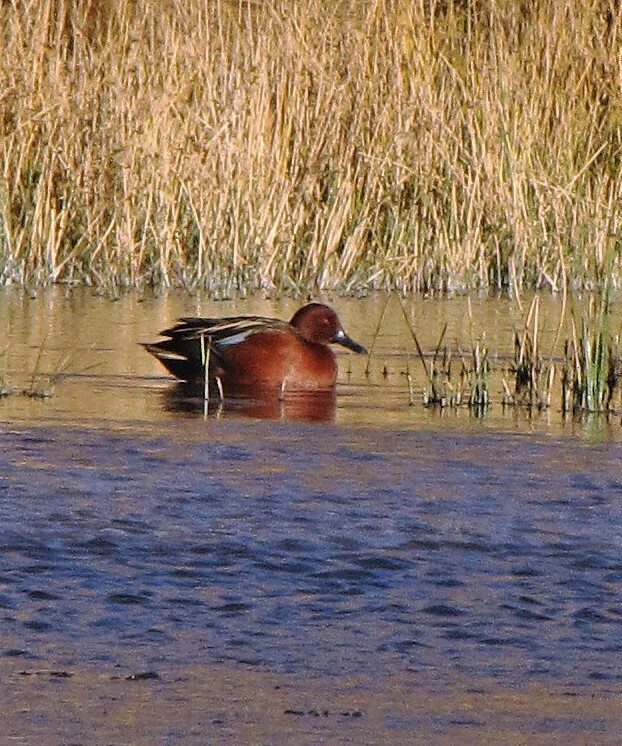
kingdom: Animalia
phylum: Chordata
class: Aves
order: Anseriformes
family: Anatidae
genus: Spatula
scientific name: Spatula cyanoptera
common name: Cinnamon teal
